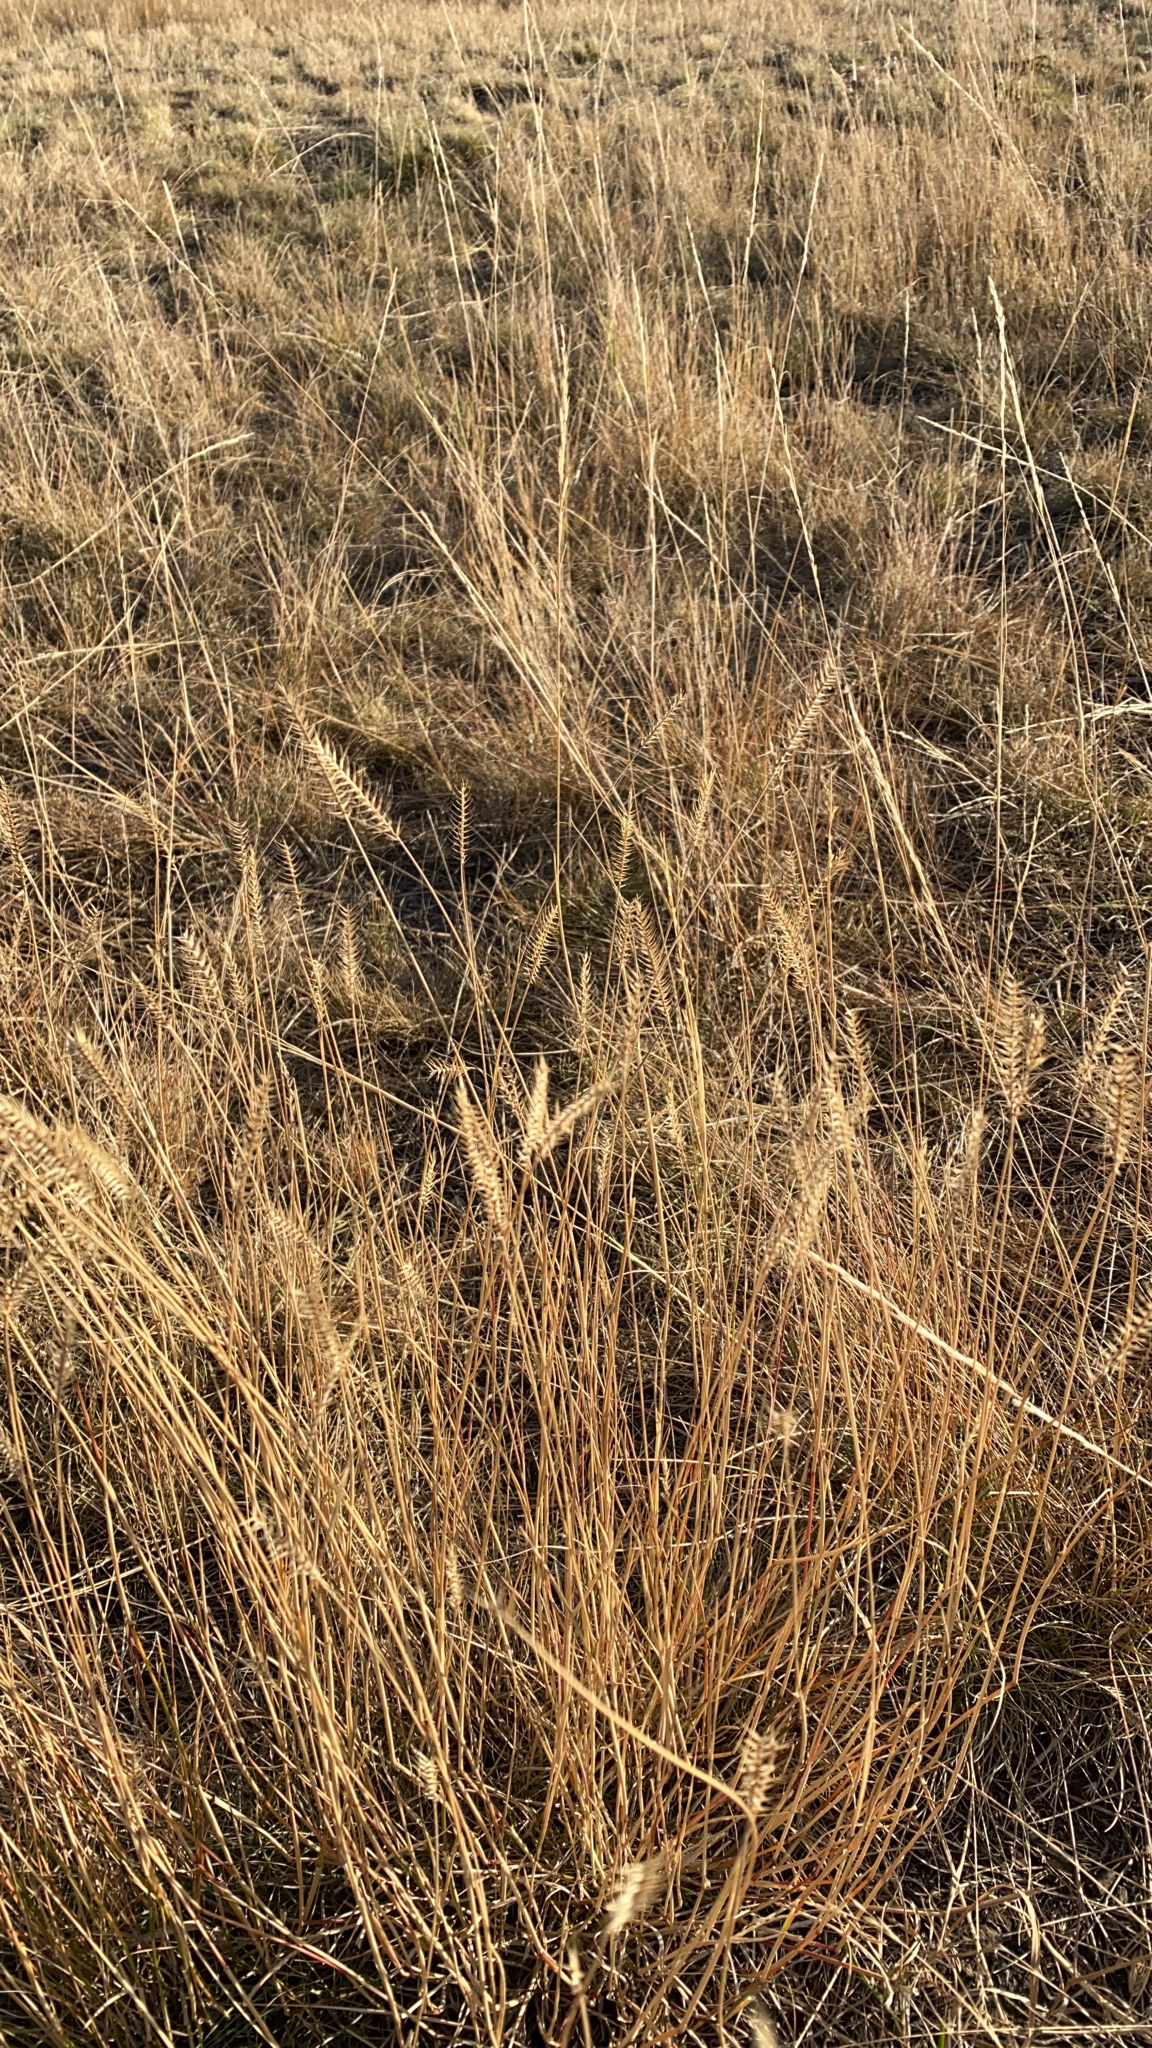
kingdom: Plantae
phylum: Tracheophyta
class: Liliopsida
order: Poales
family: Poaceae
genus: Agropyron
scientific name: Agropyron cristatum
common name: Crested wheatgrass
